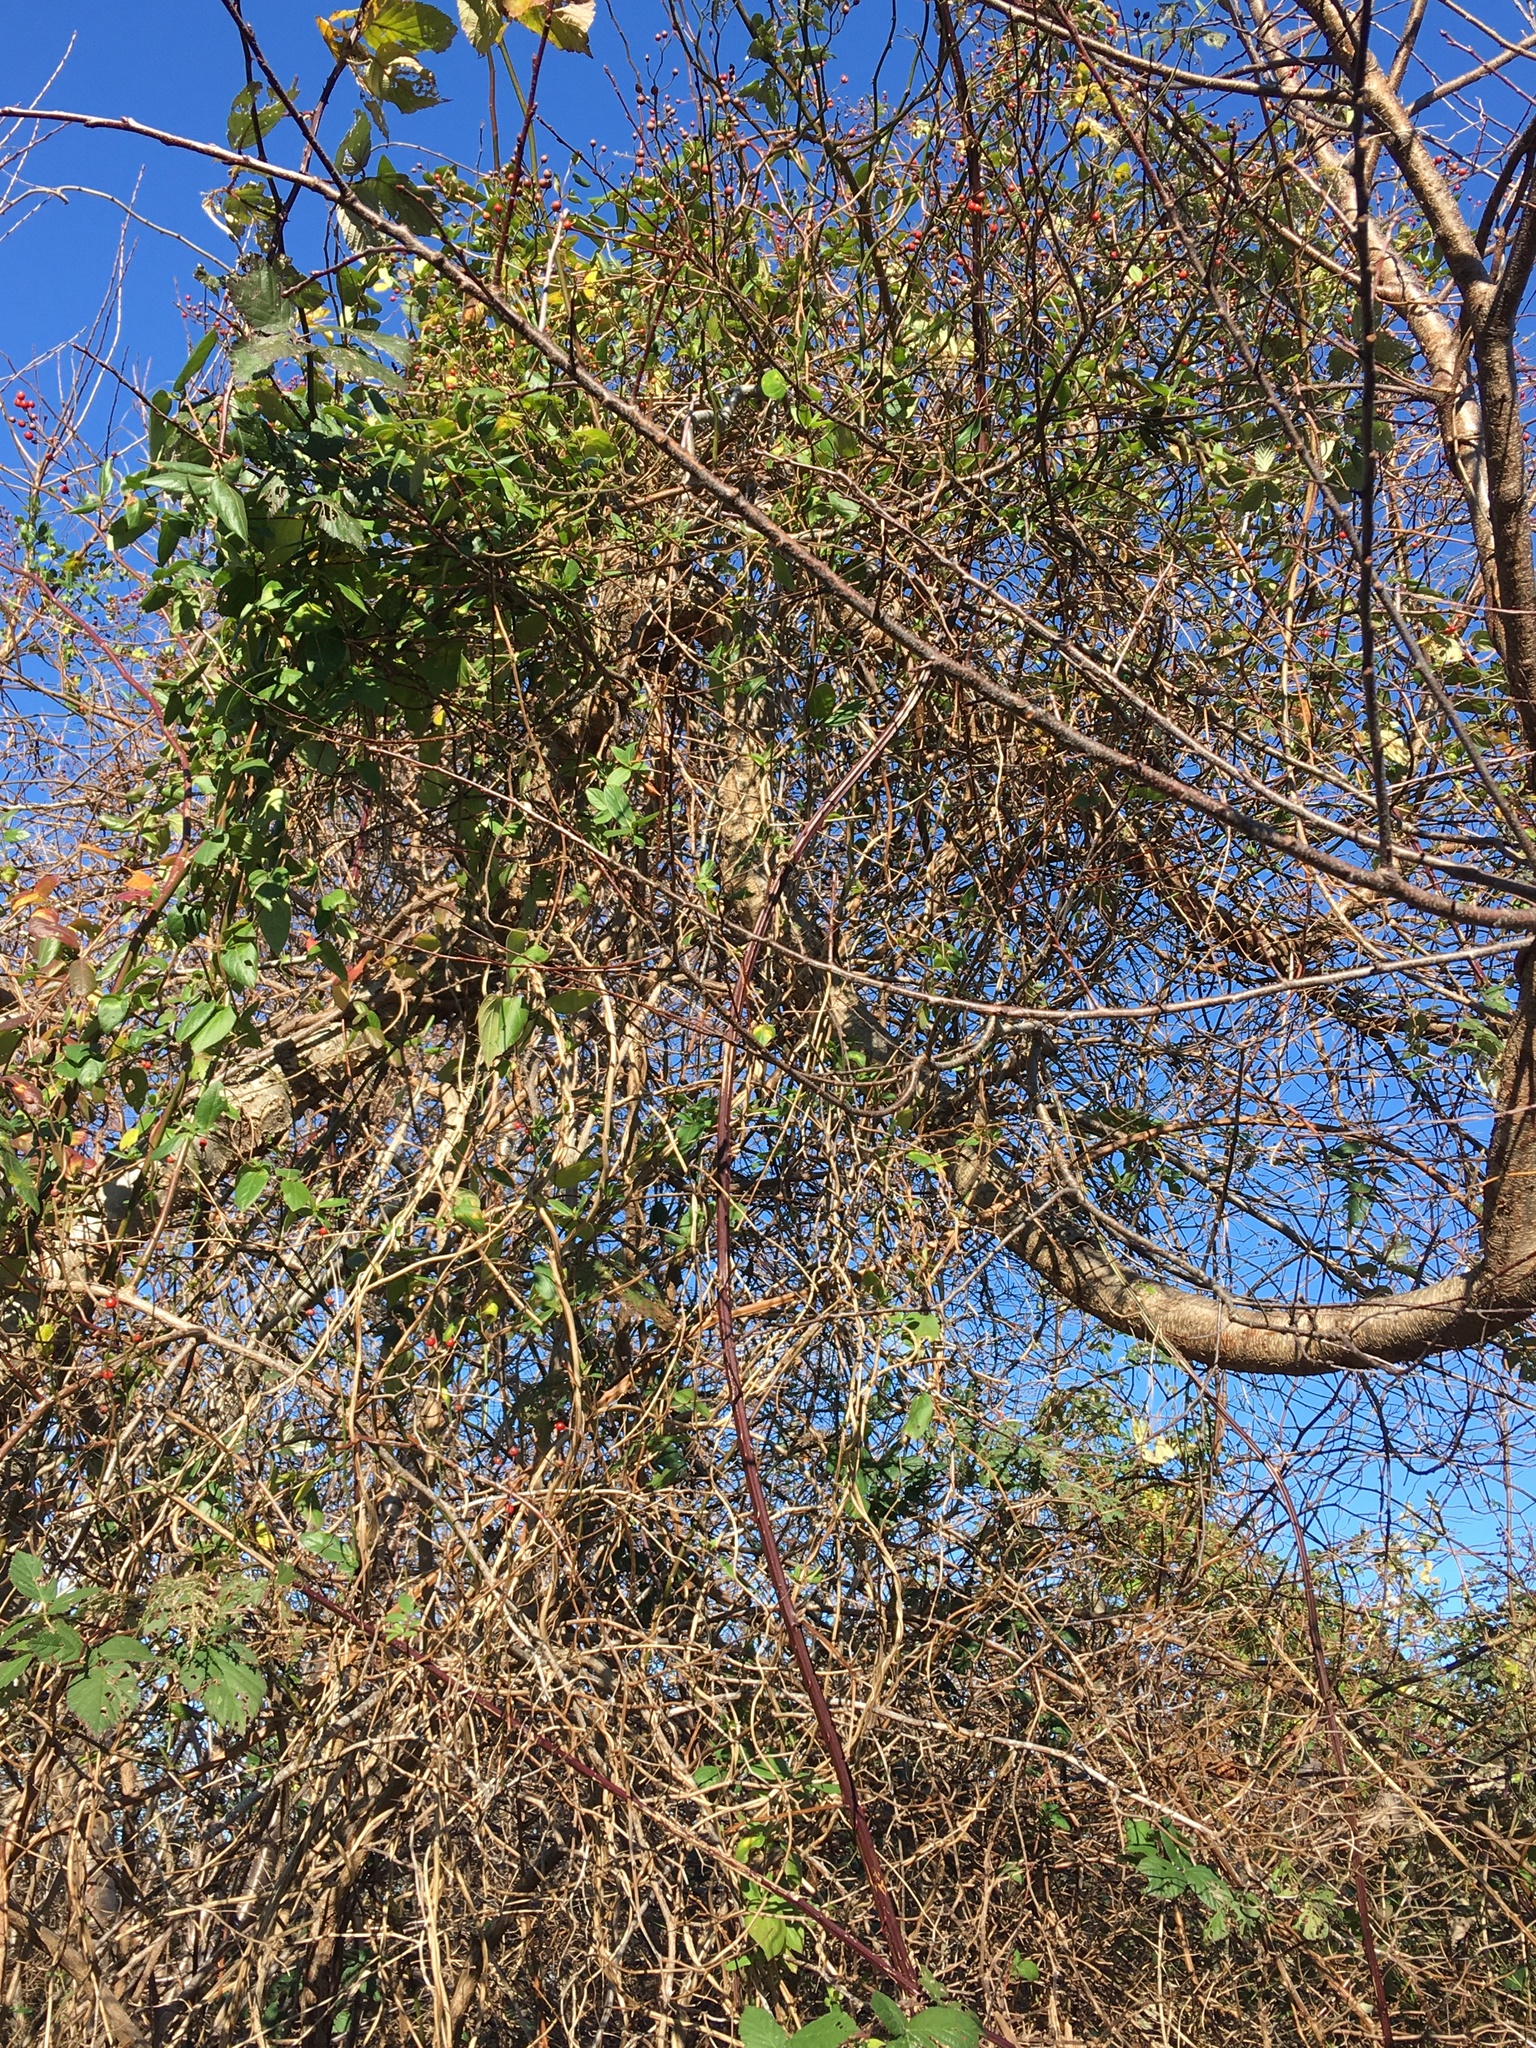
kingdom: Plantae
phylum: Tracheophyta
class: Magnoliopsida
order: Rosales
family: Rosaceae
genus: Rubus
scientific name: Rubus bifrons
